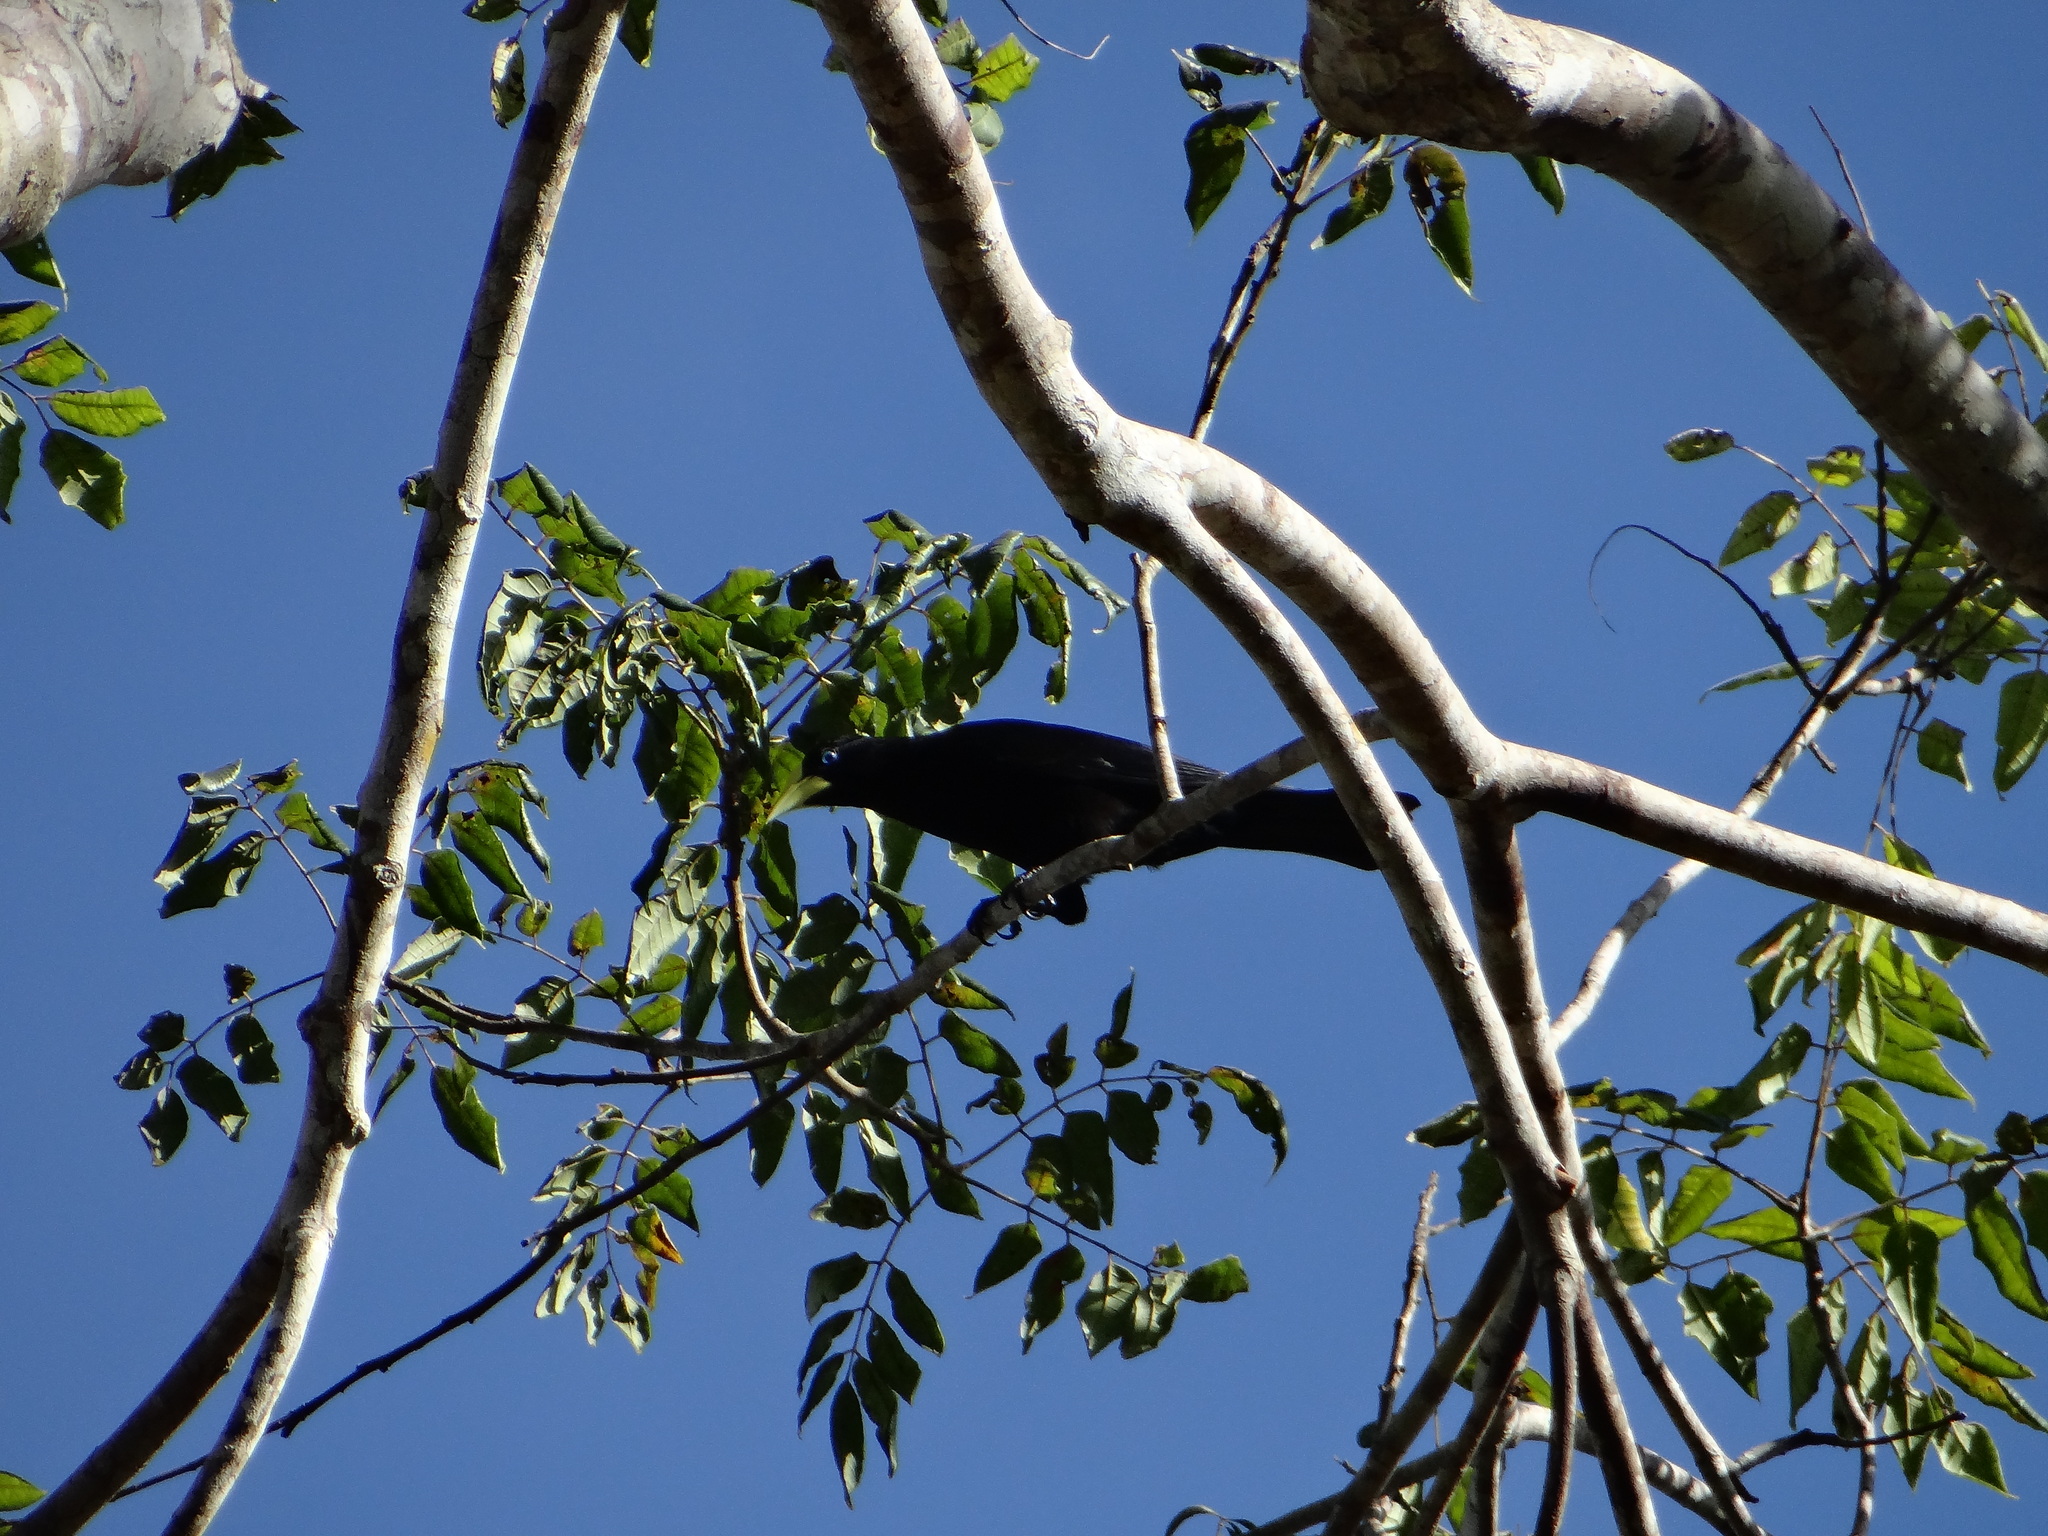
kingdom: Animalia
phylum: Chordata
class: Aves
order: Passeriformes
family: Icteridae
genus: Cacicus
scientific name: Cacicus haemorrhous
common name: Red-rumped cacique
